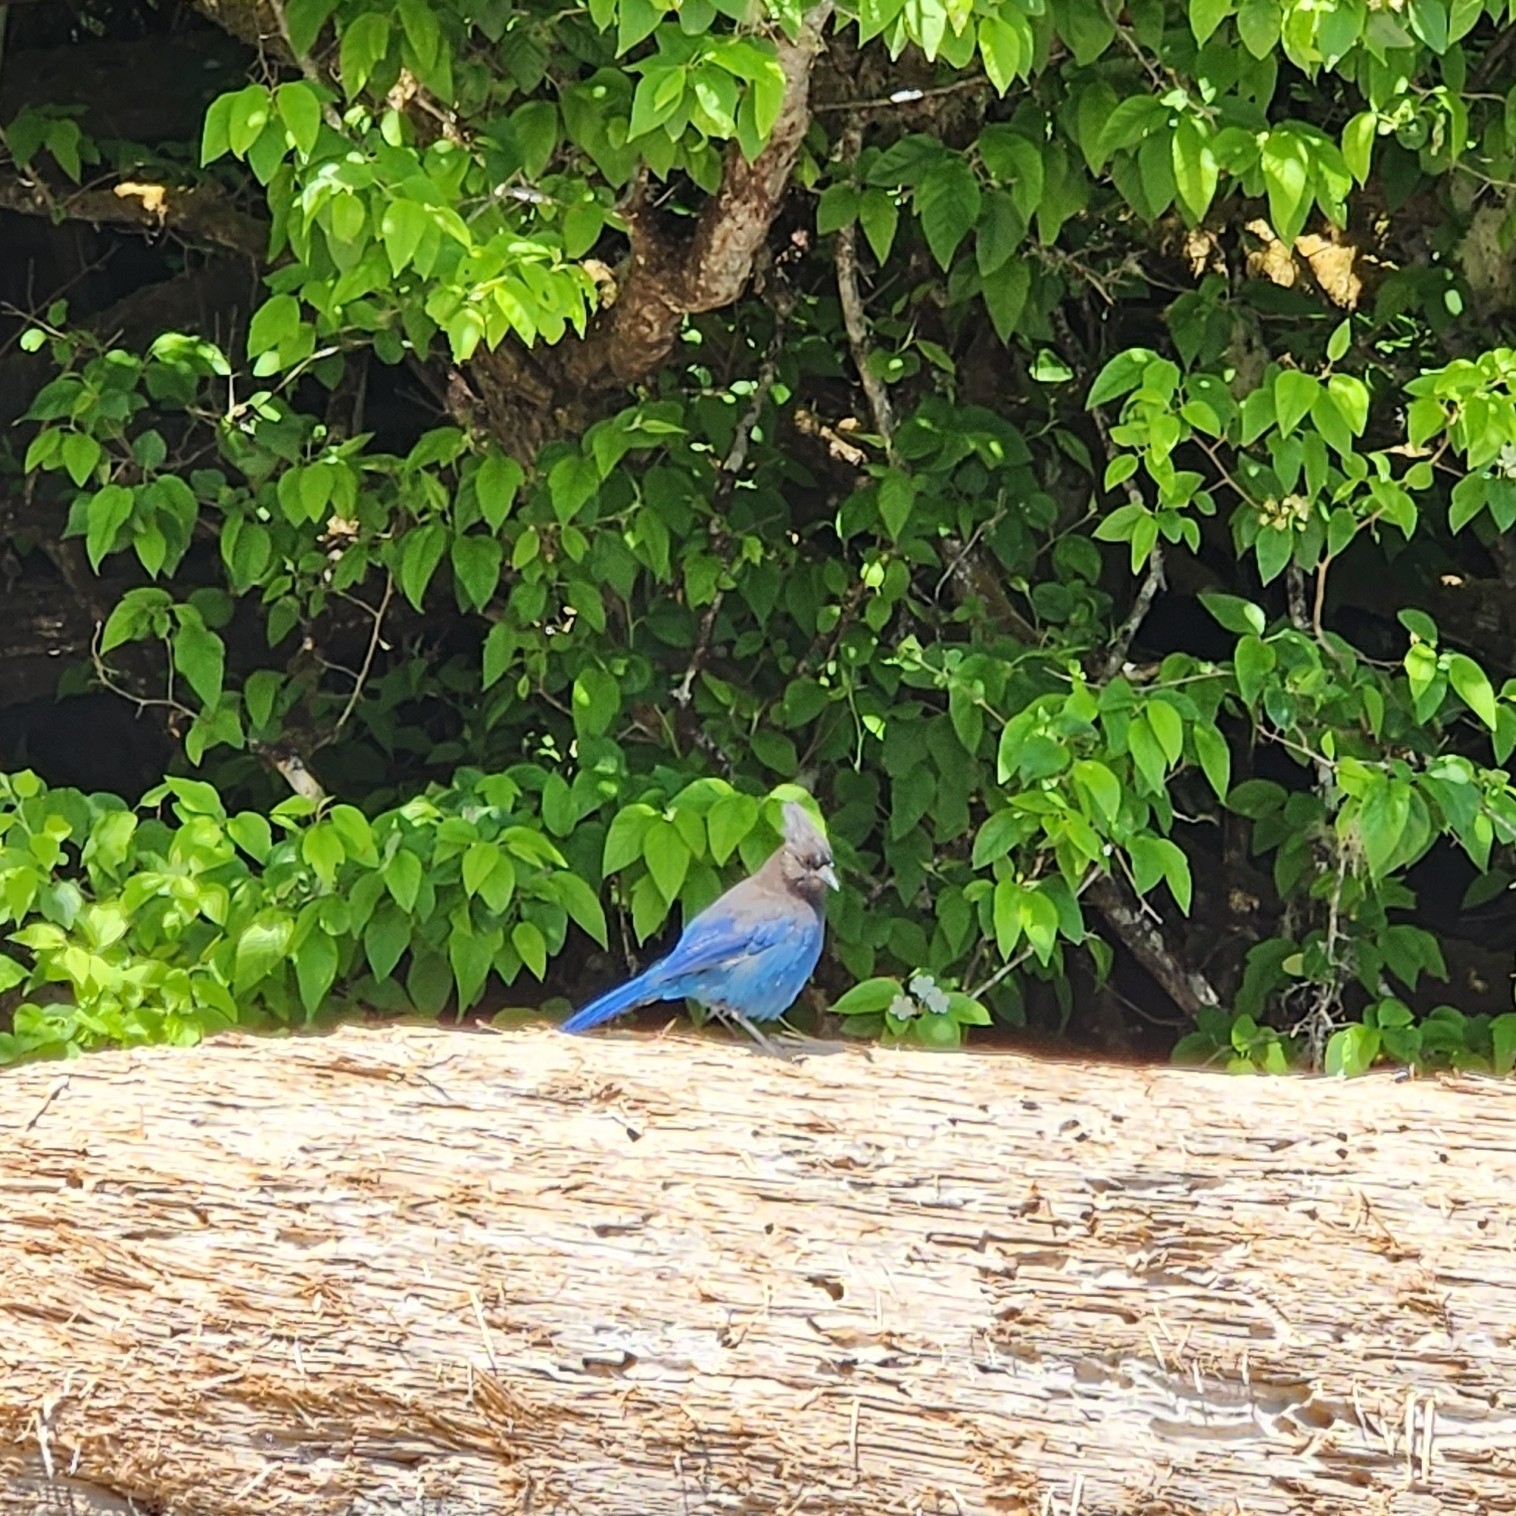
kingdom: Animalia
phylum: Chordata
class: Aves
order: Passeriformes
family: Corvidae
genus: Cyanocitta
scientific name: Cyanocitta stelleri
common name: Steller's jay
